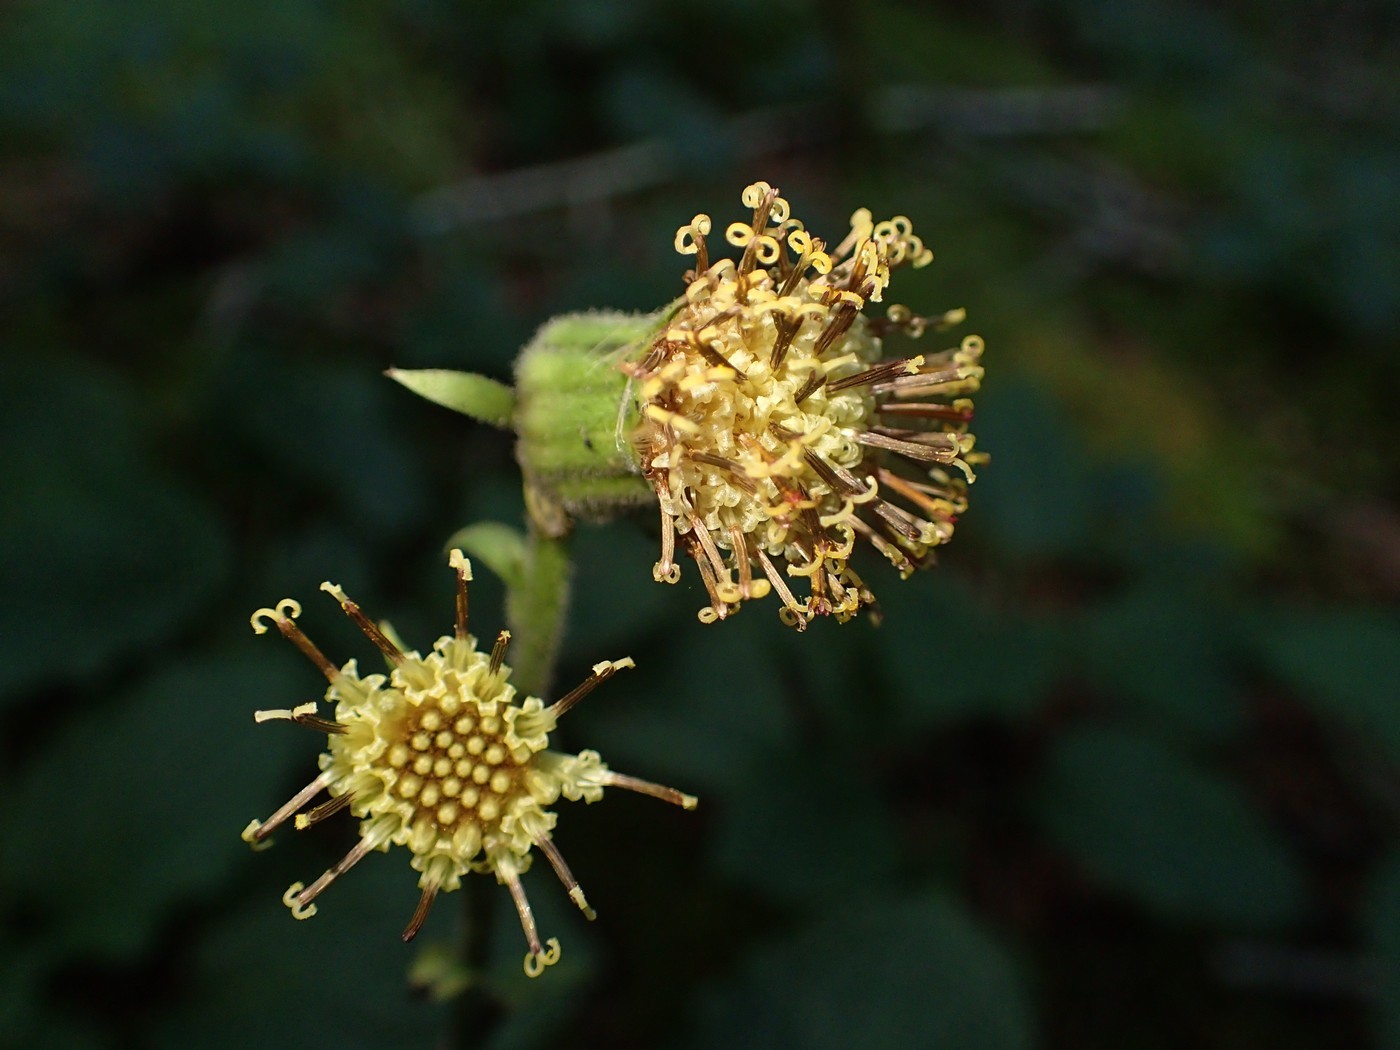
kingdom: Plantae
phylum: Tracheophyta
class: Magnoliopsida
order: Asterales
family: Asteraceae
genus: Rugelia
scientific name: Rugelia nudicaulis
